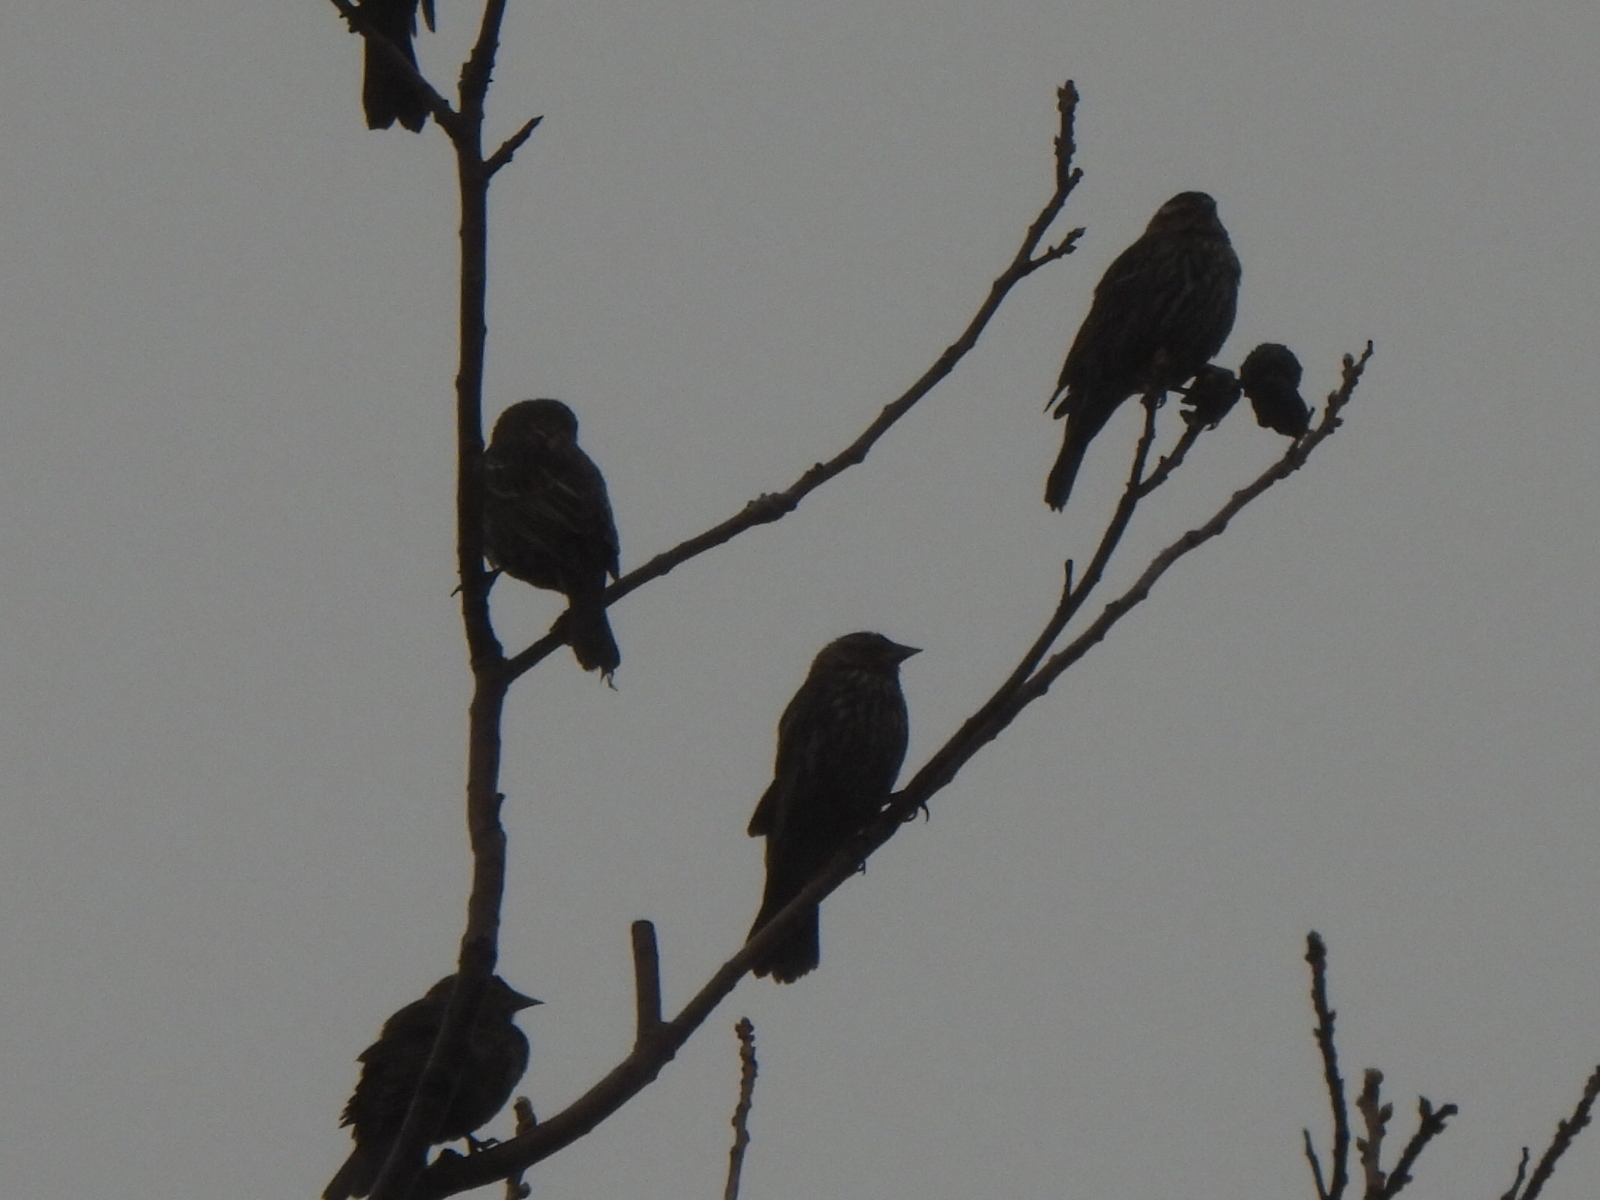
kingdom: Animalia
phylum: Chordata
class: Aves
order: Passeriformes
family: Icteridae
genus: Agelaius
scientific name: Agelaius phoeniceus
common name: Red-winged blackbird
